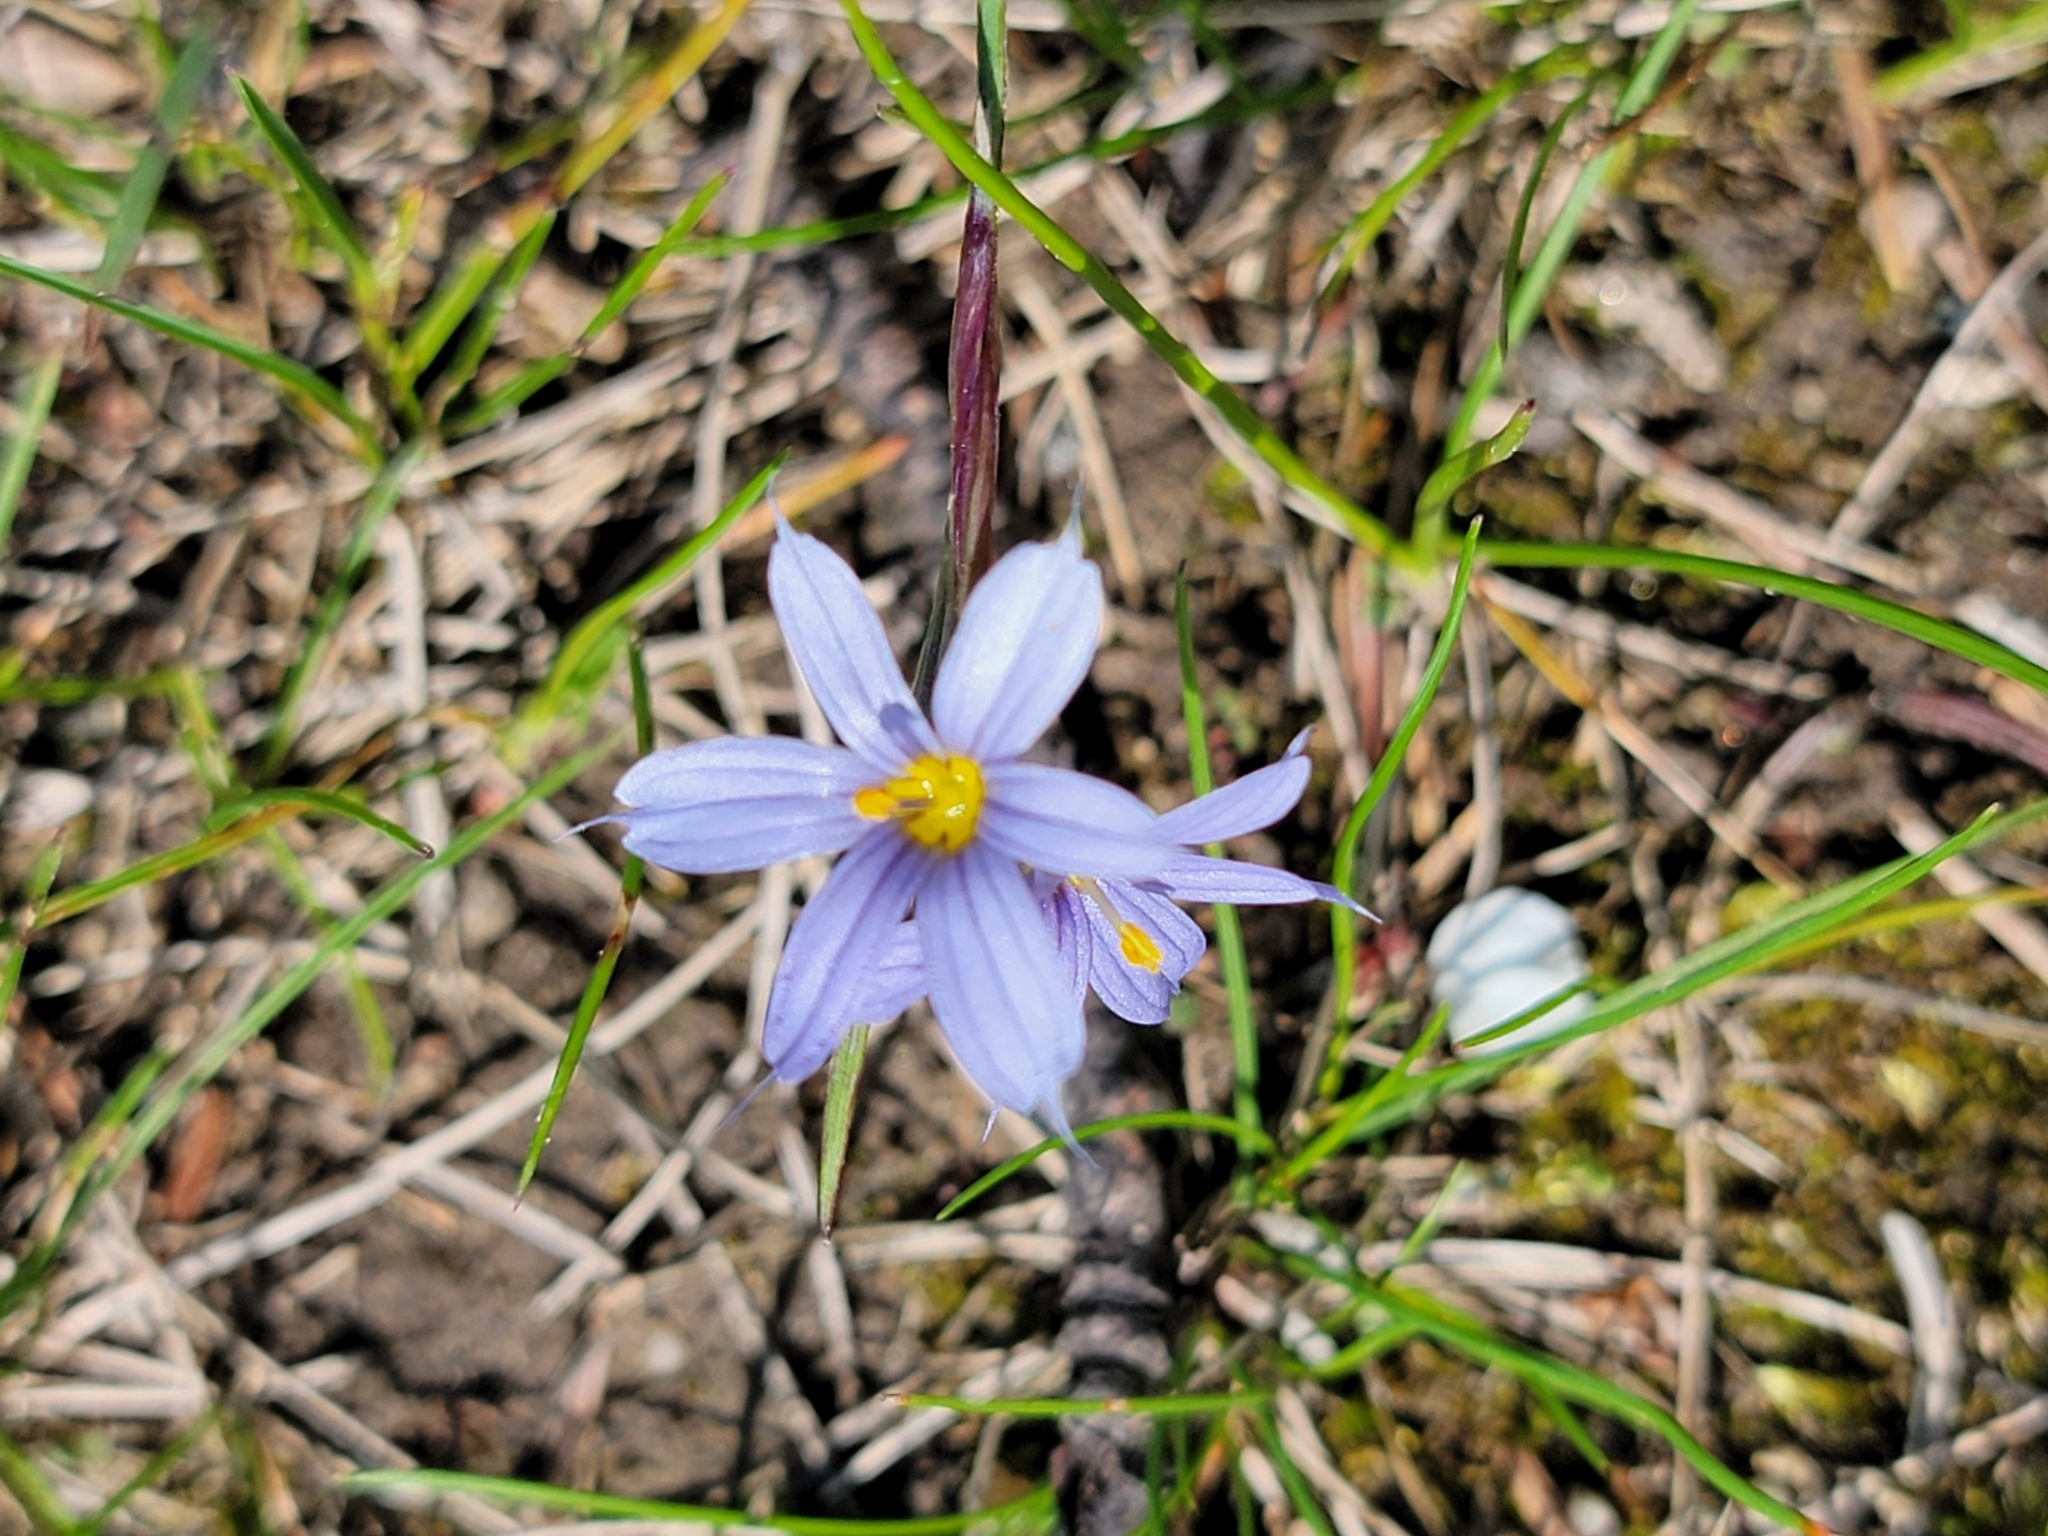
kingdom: Plantae
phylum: Tracheophyta
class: Liliopsida
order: Asparagales
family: Iridaceae
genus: Sisyrinchium
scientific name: Sisyrinchium montanum
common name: American blue-eyed-grass
